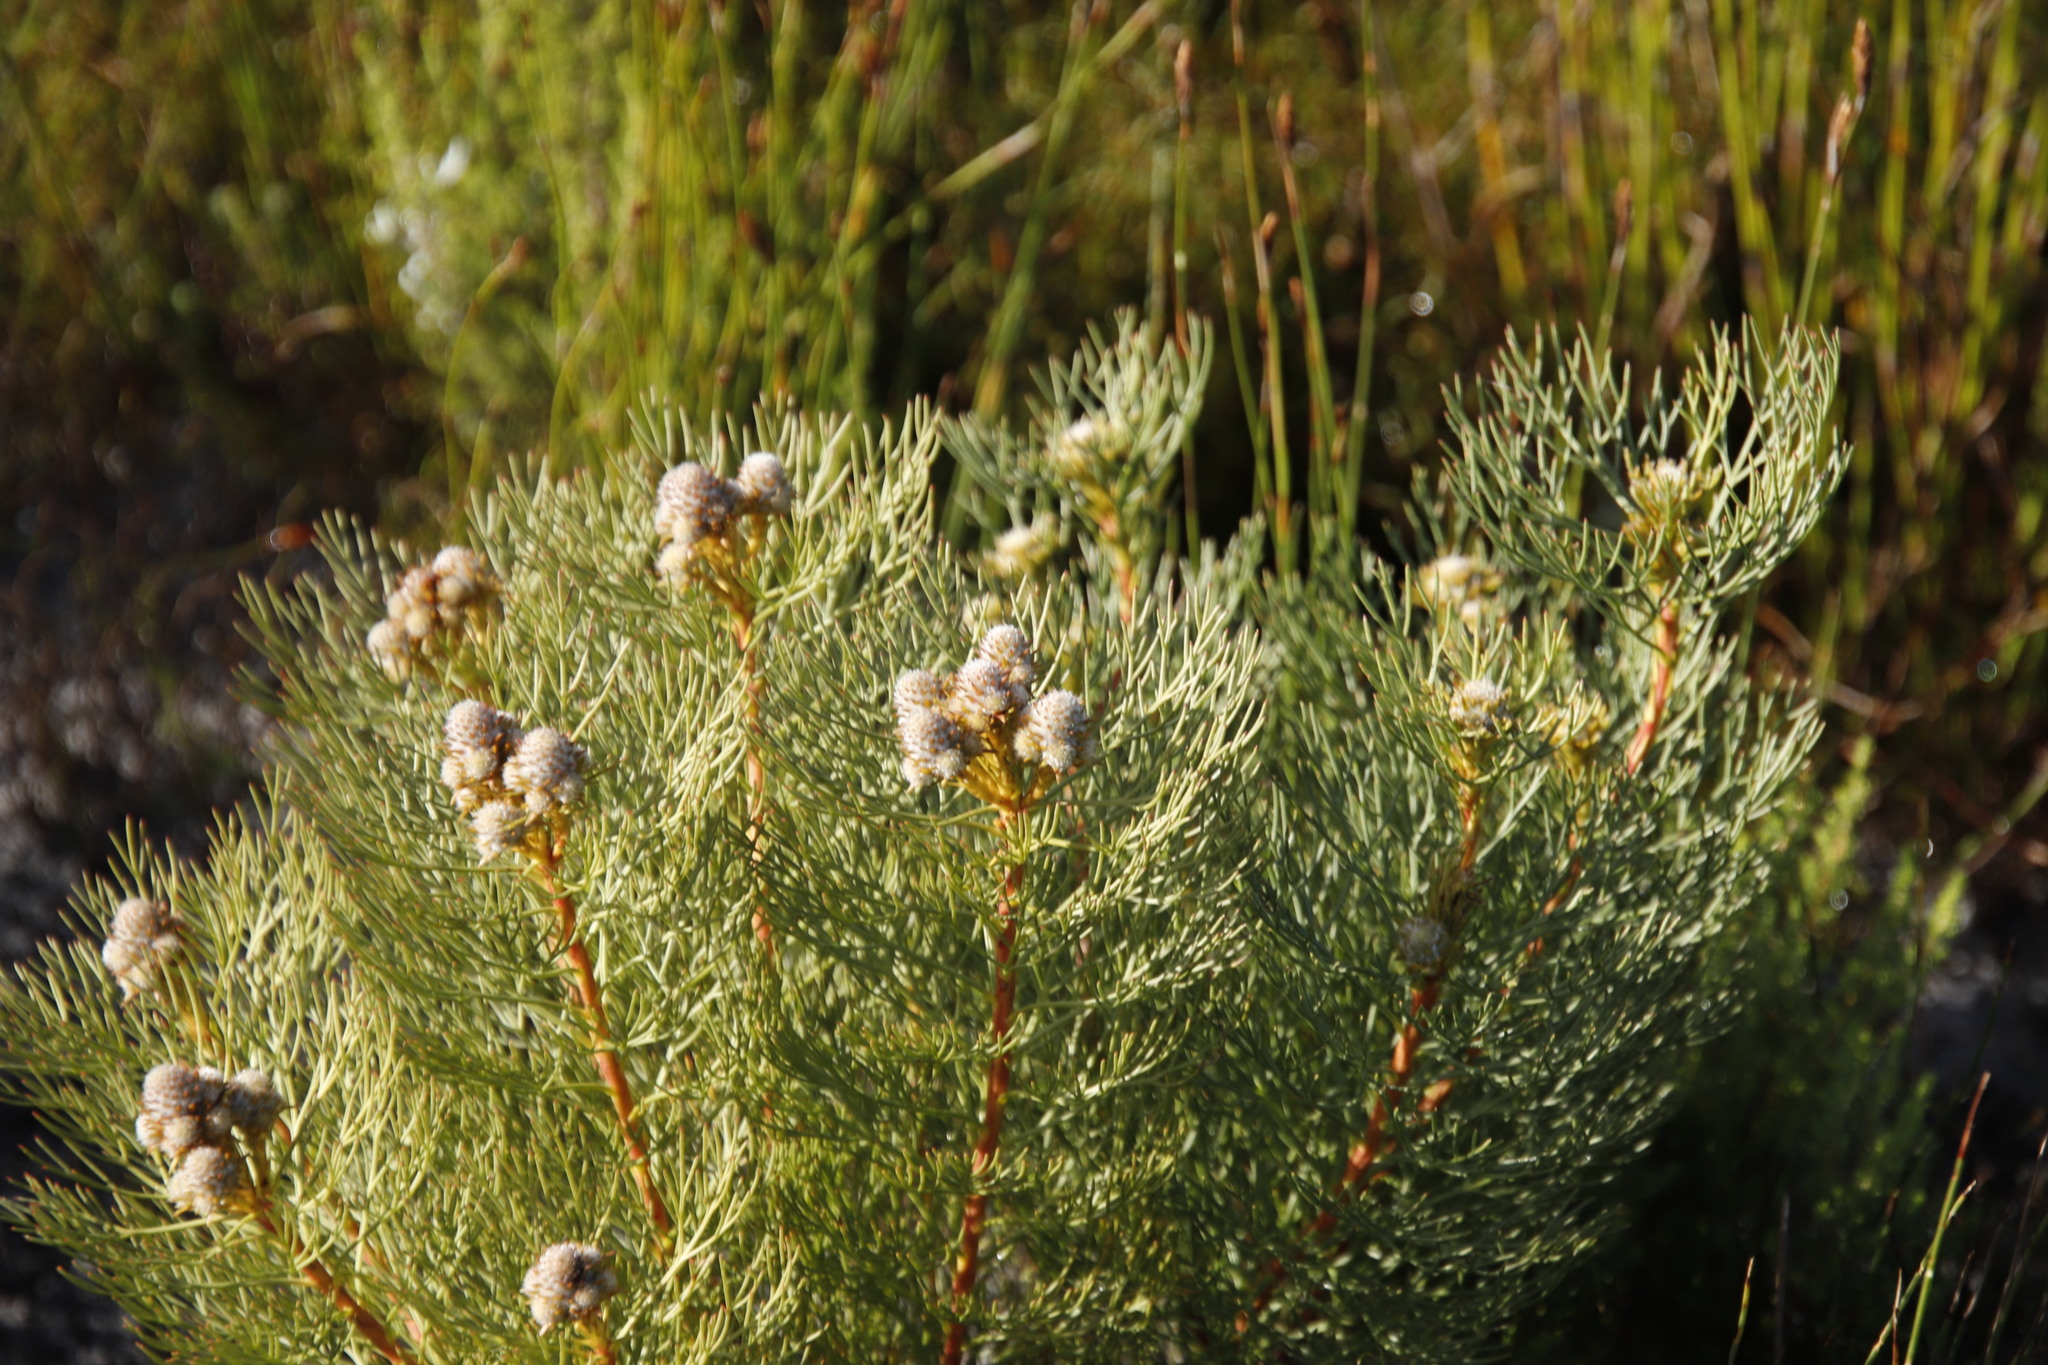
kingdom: Plantae
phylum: Tracheophyta
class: Magnoliopsida
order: Proteales
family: Proteaceae
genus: Serruria
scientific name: Serruria glomerata
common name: Cluster spiderhead
